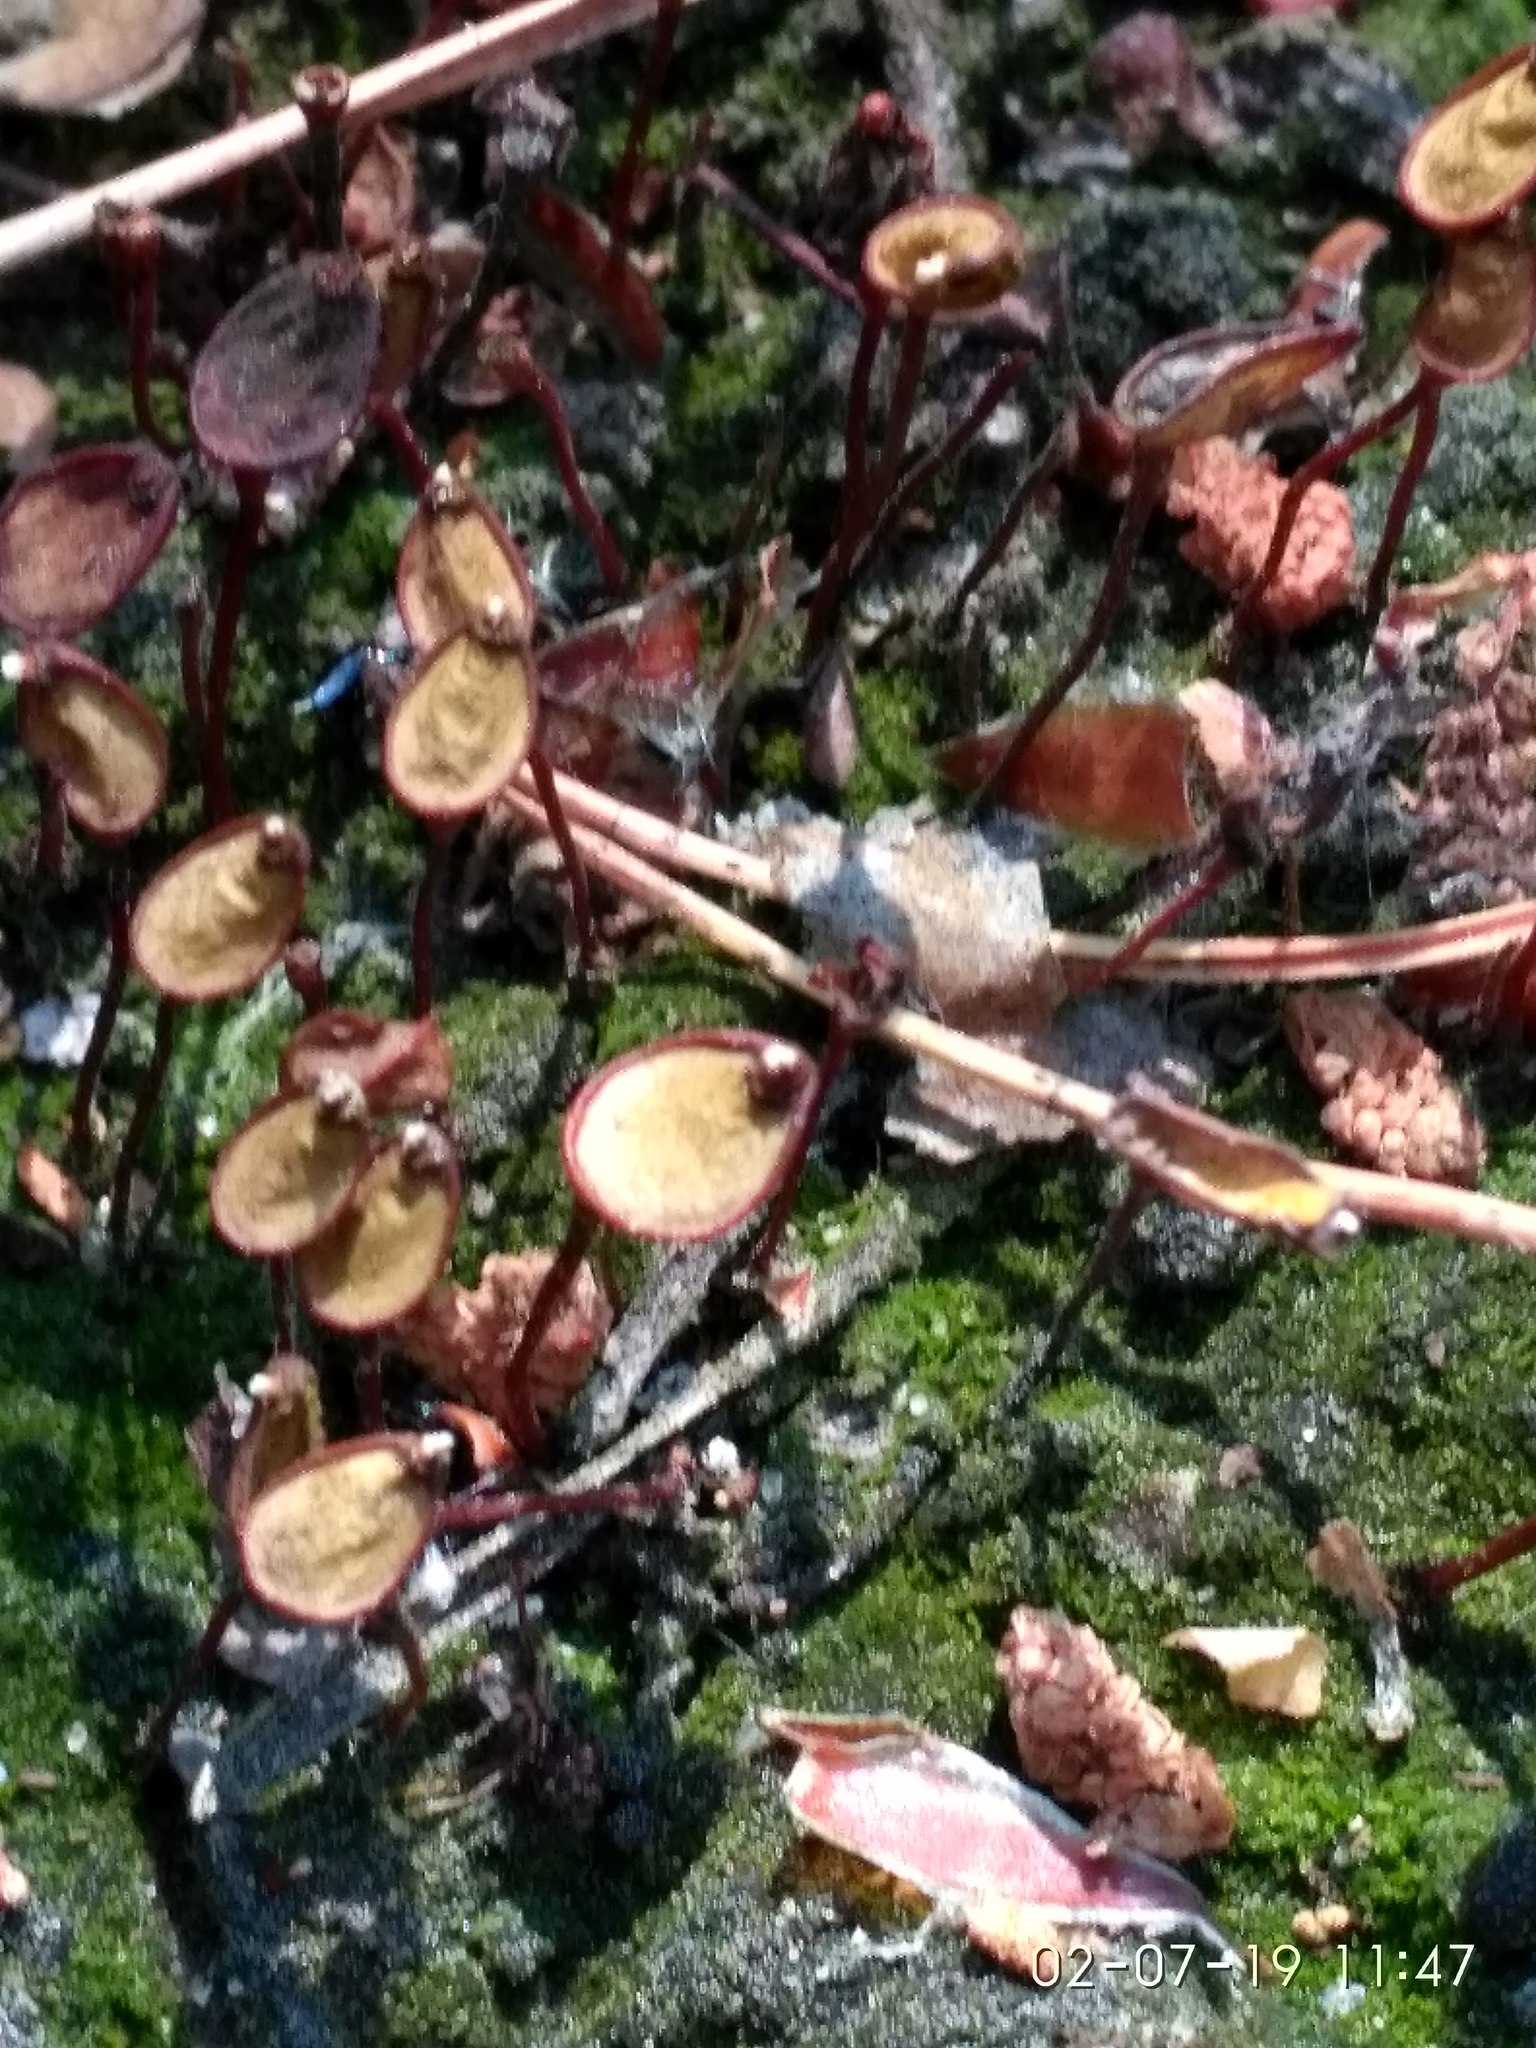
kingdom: Plantae
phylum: Bryophyta
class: Bryopsida
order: Buxbaumiales
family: Buxbaumiaceae
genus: Buxbaumia
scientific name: Buxbaumia aphylla
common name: Brown shield-moss
